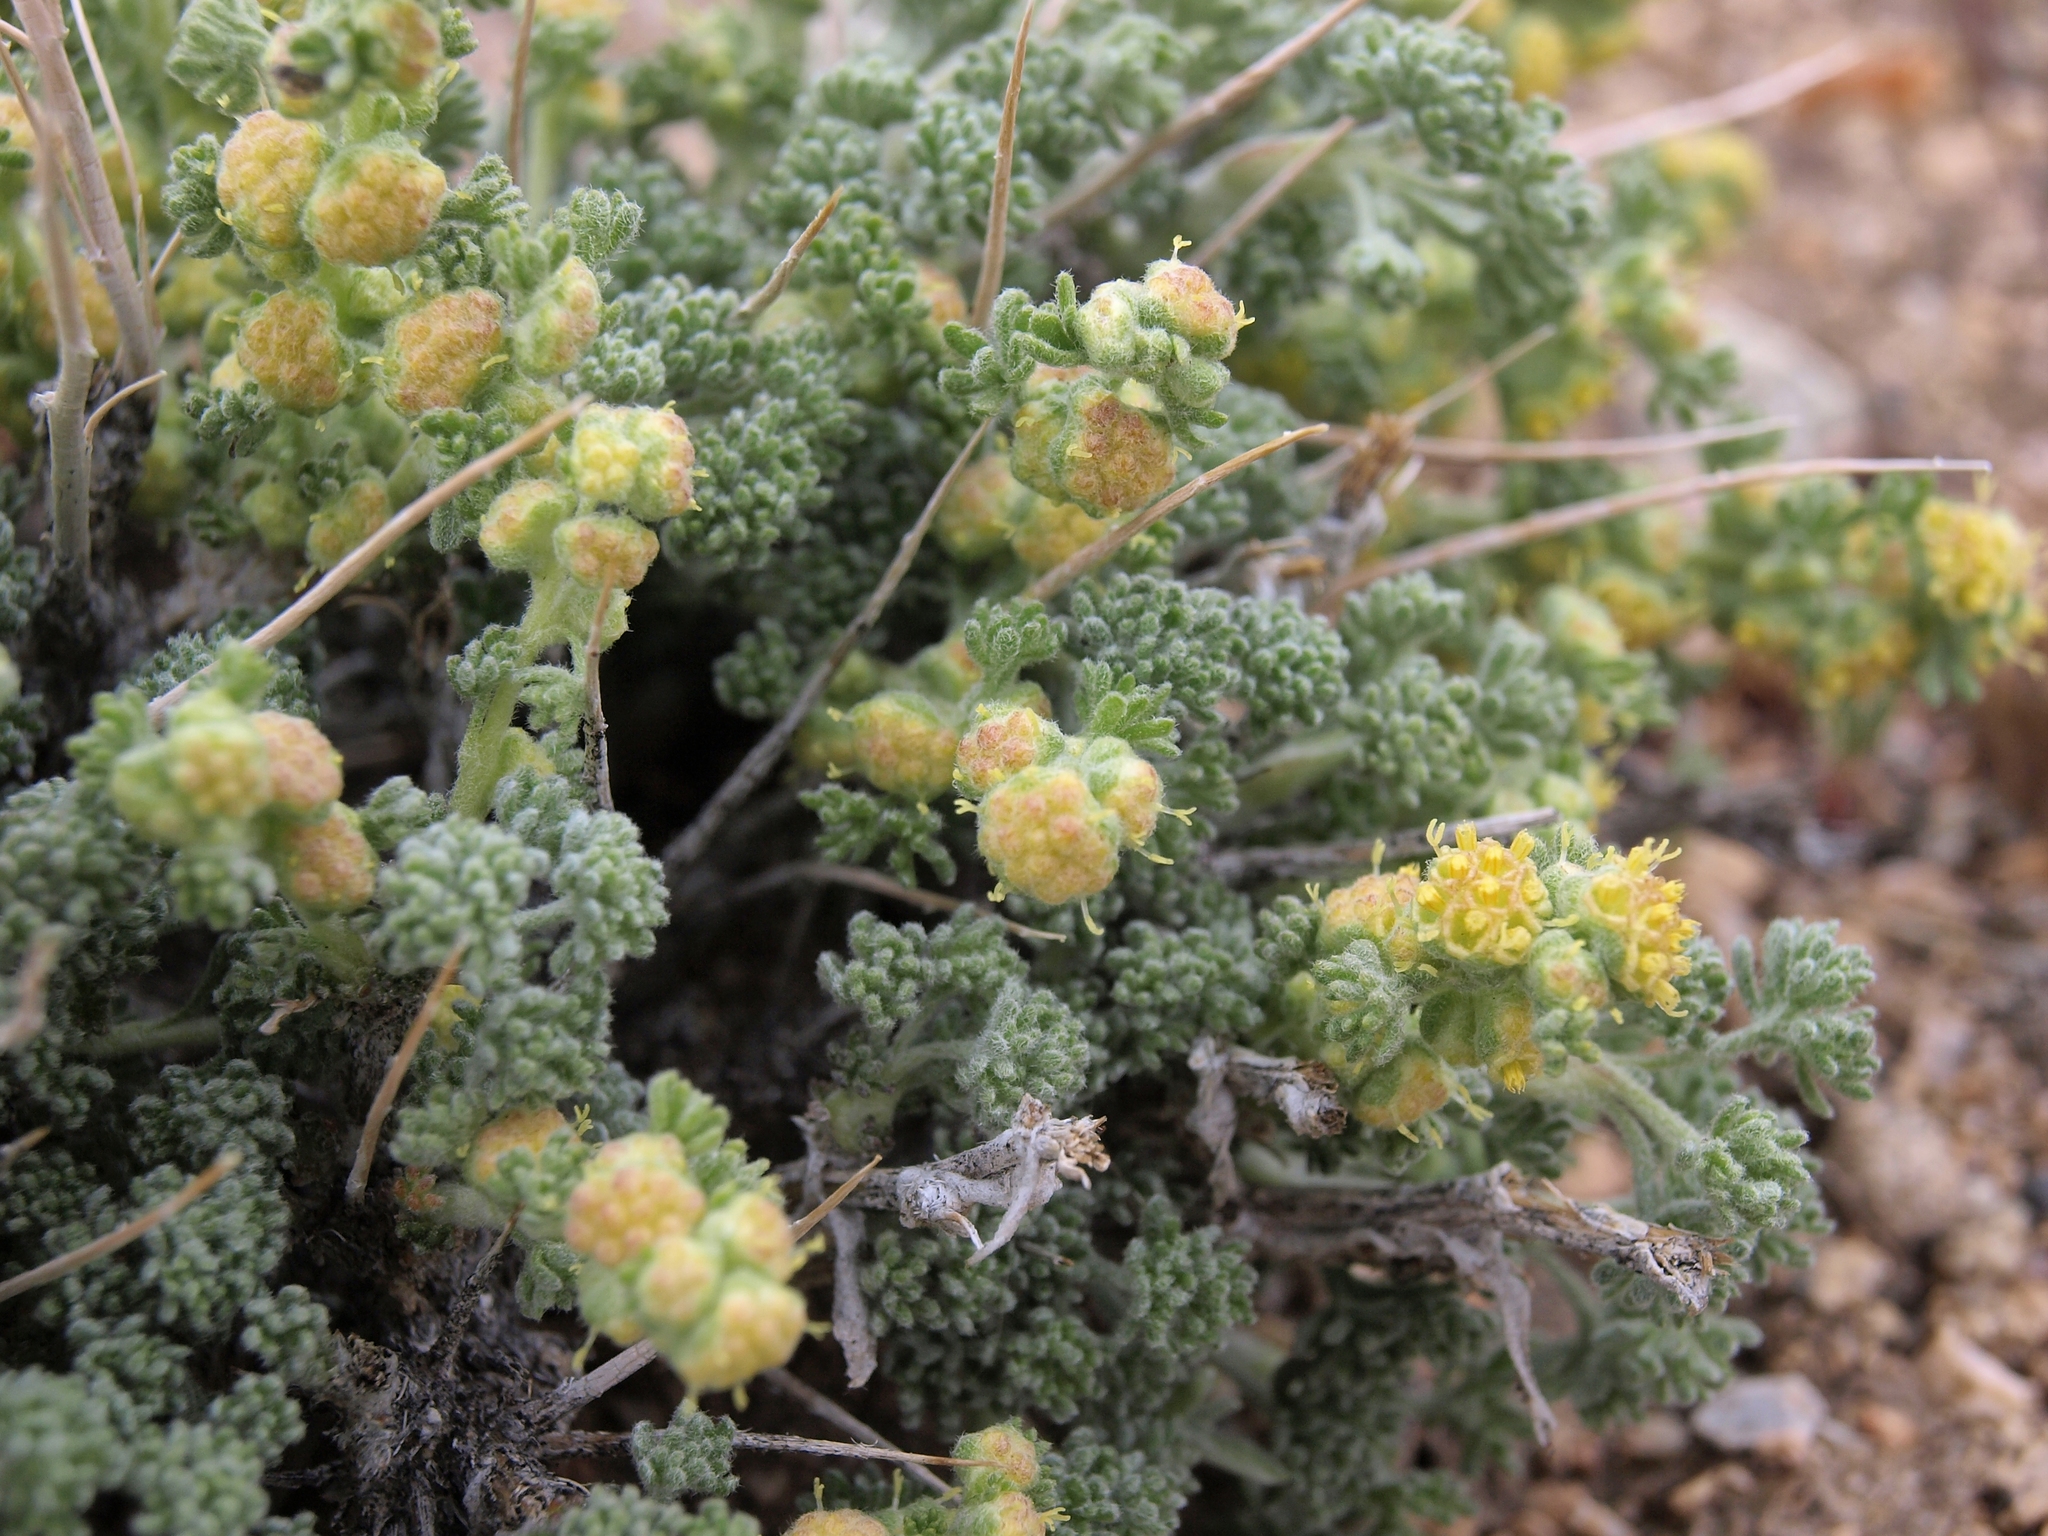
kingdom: Plantae
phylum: Tracheophyta
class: Magnoliopsida
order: Asterales
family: Asteraceae
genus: Artemisia
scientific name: Artemisia spinescens
